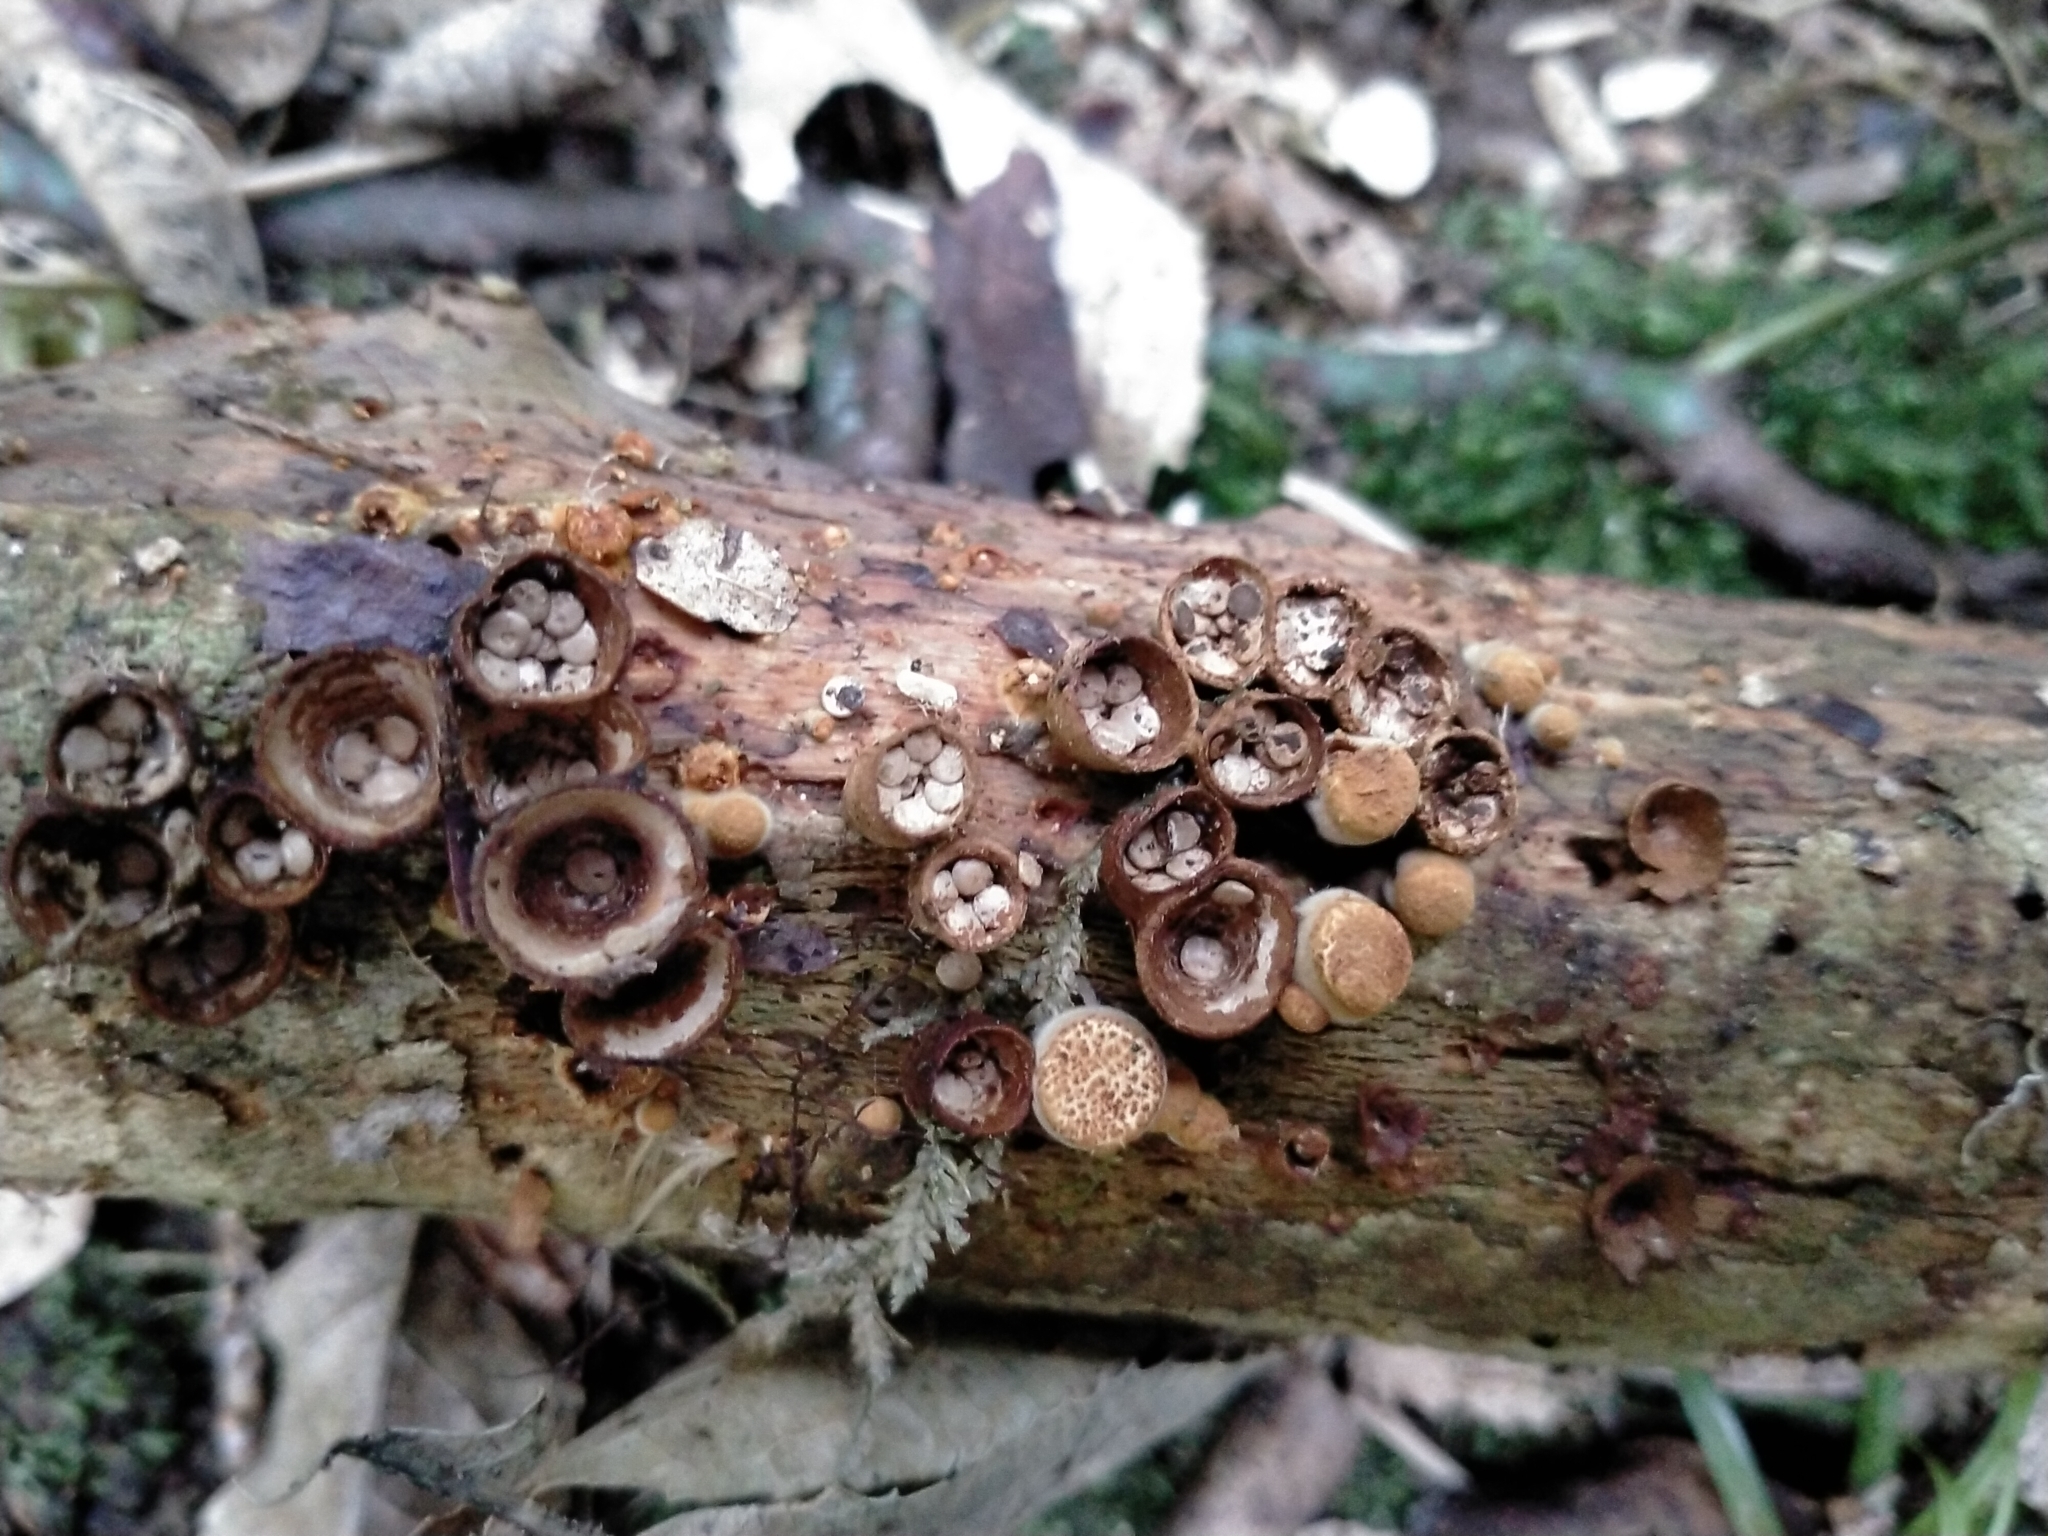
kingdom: Fungi
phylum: Basidiomycota
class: Agaricomycetes
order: Agaricales
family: Agaricaceae
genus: Cyathus
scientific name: Cyathus olla
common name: Field bird's nest
